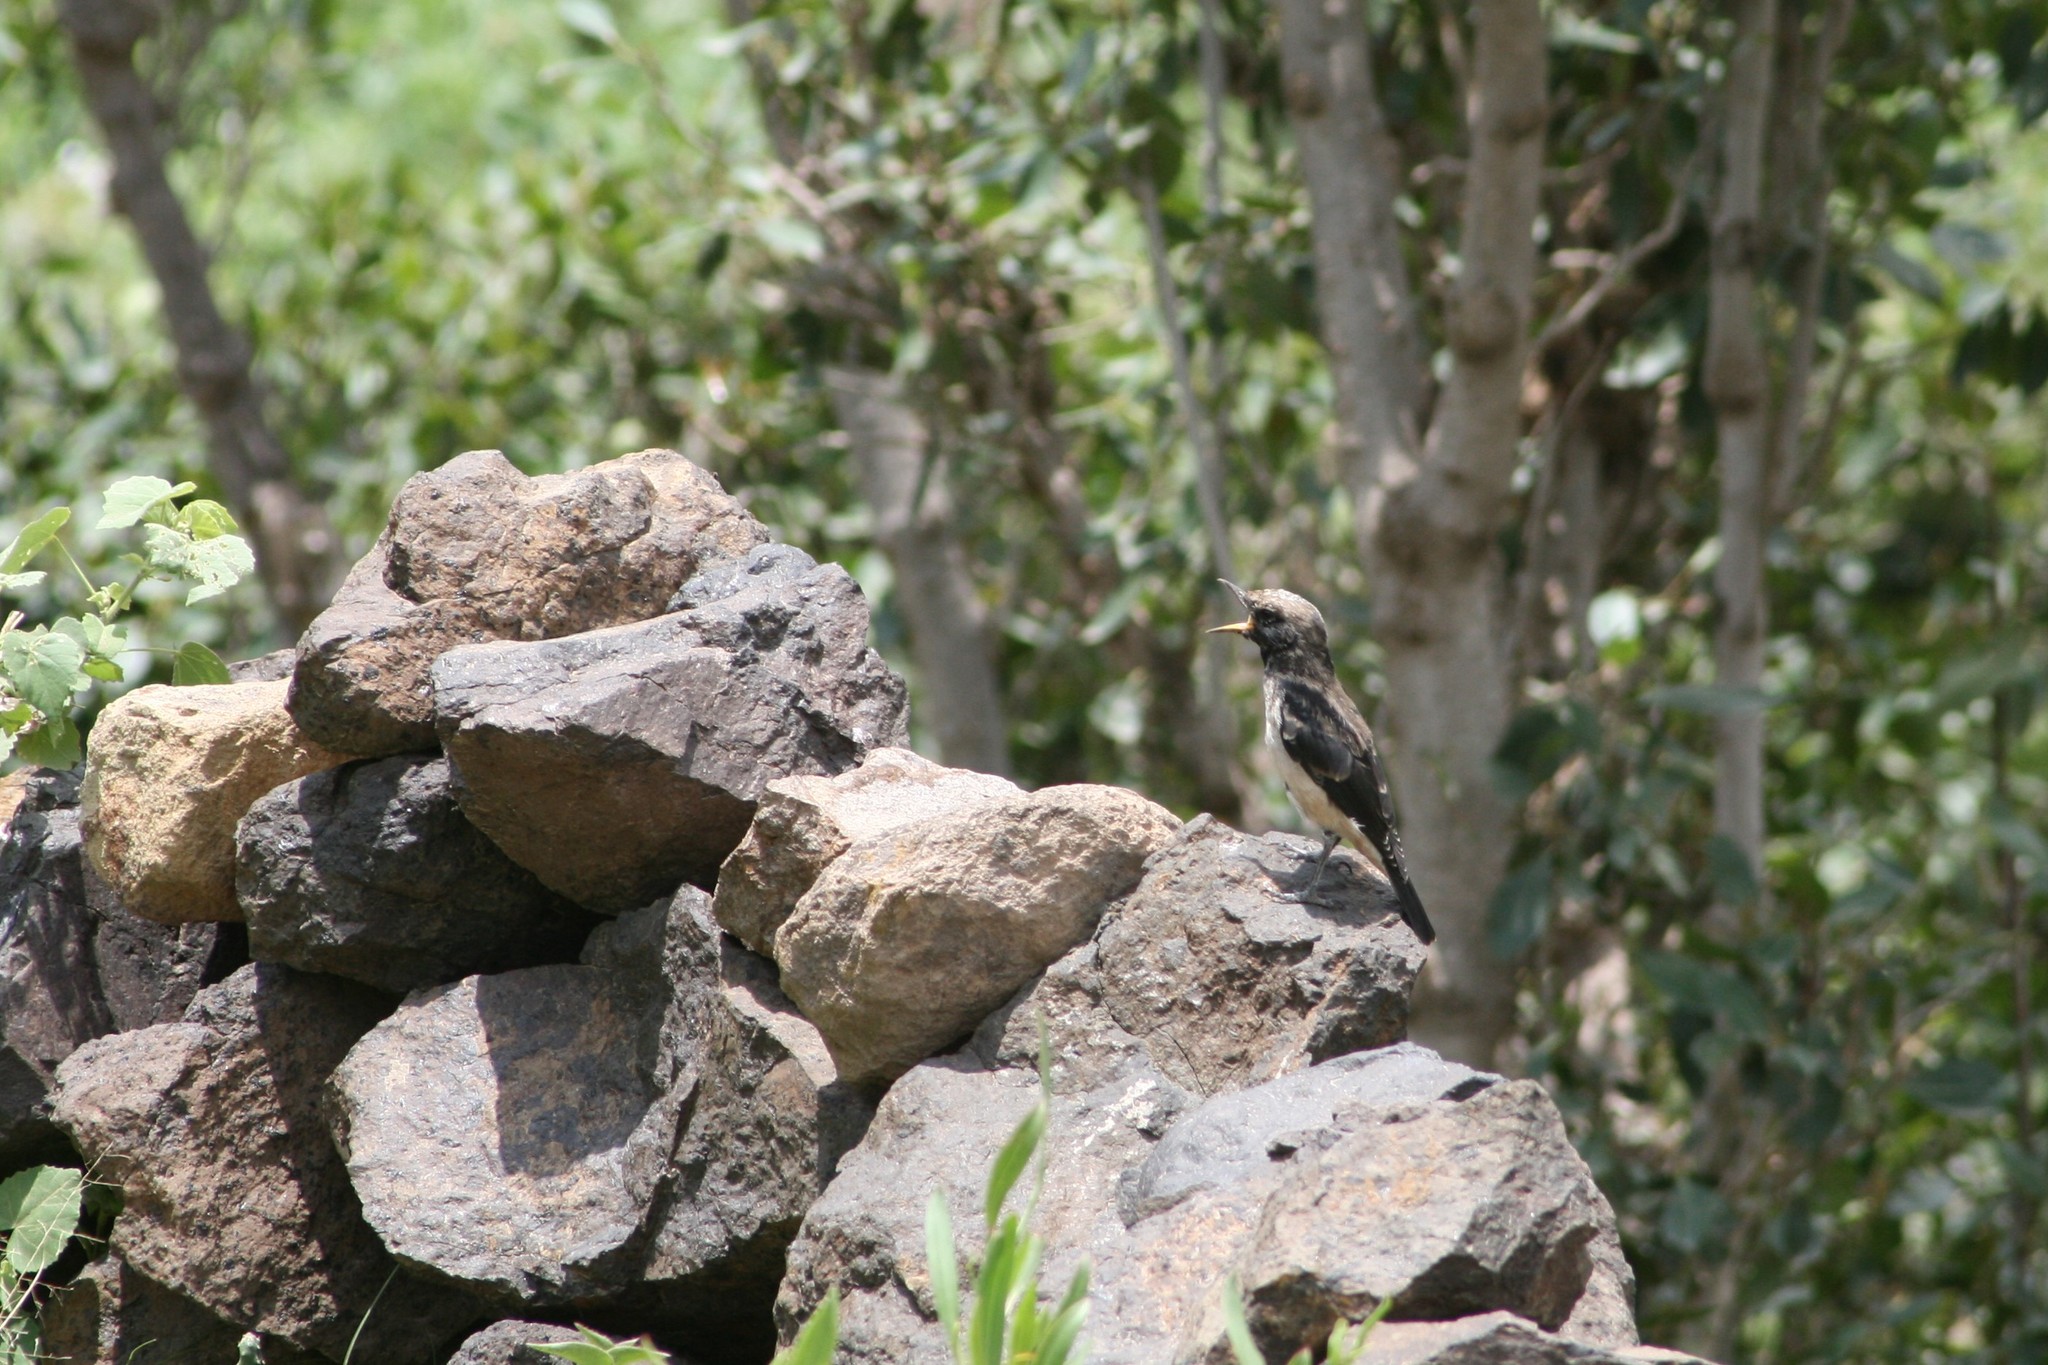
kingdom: Animalia
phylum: Chordata
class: Aves
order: Passeriformes
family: Muscicapidae
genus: Oenanthe
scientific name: Oenanthe lugentoides
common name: Arabian wheatear
